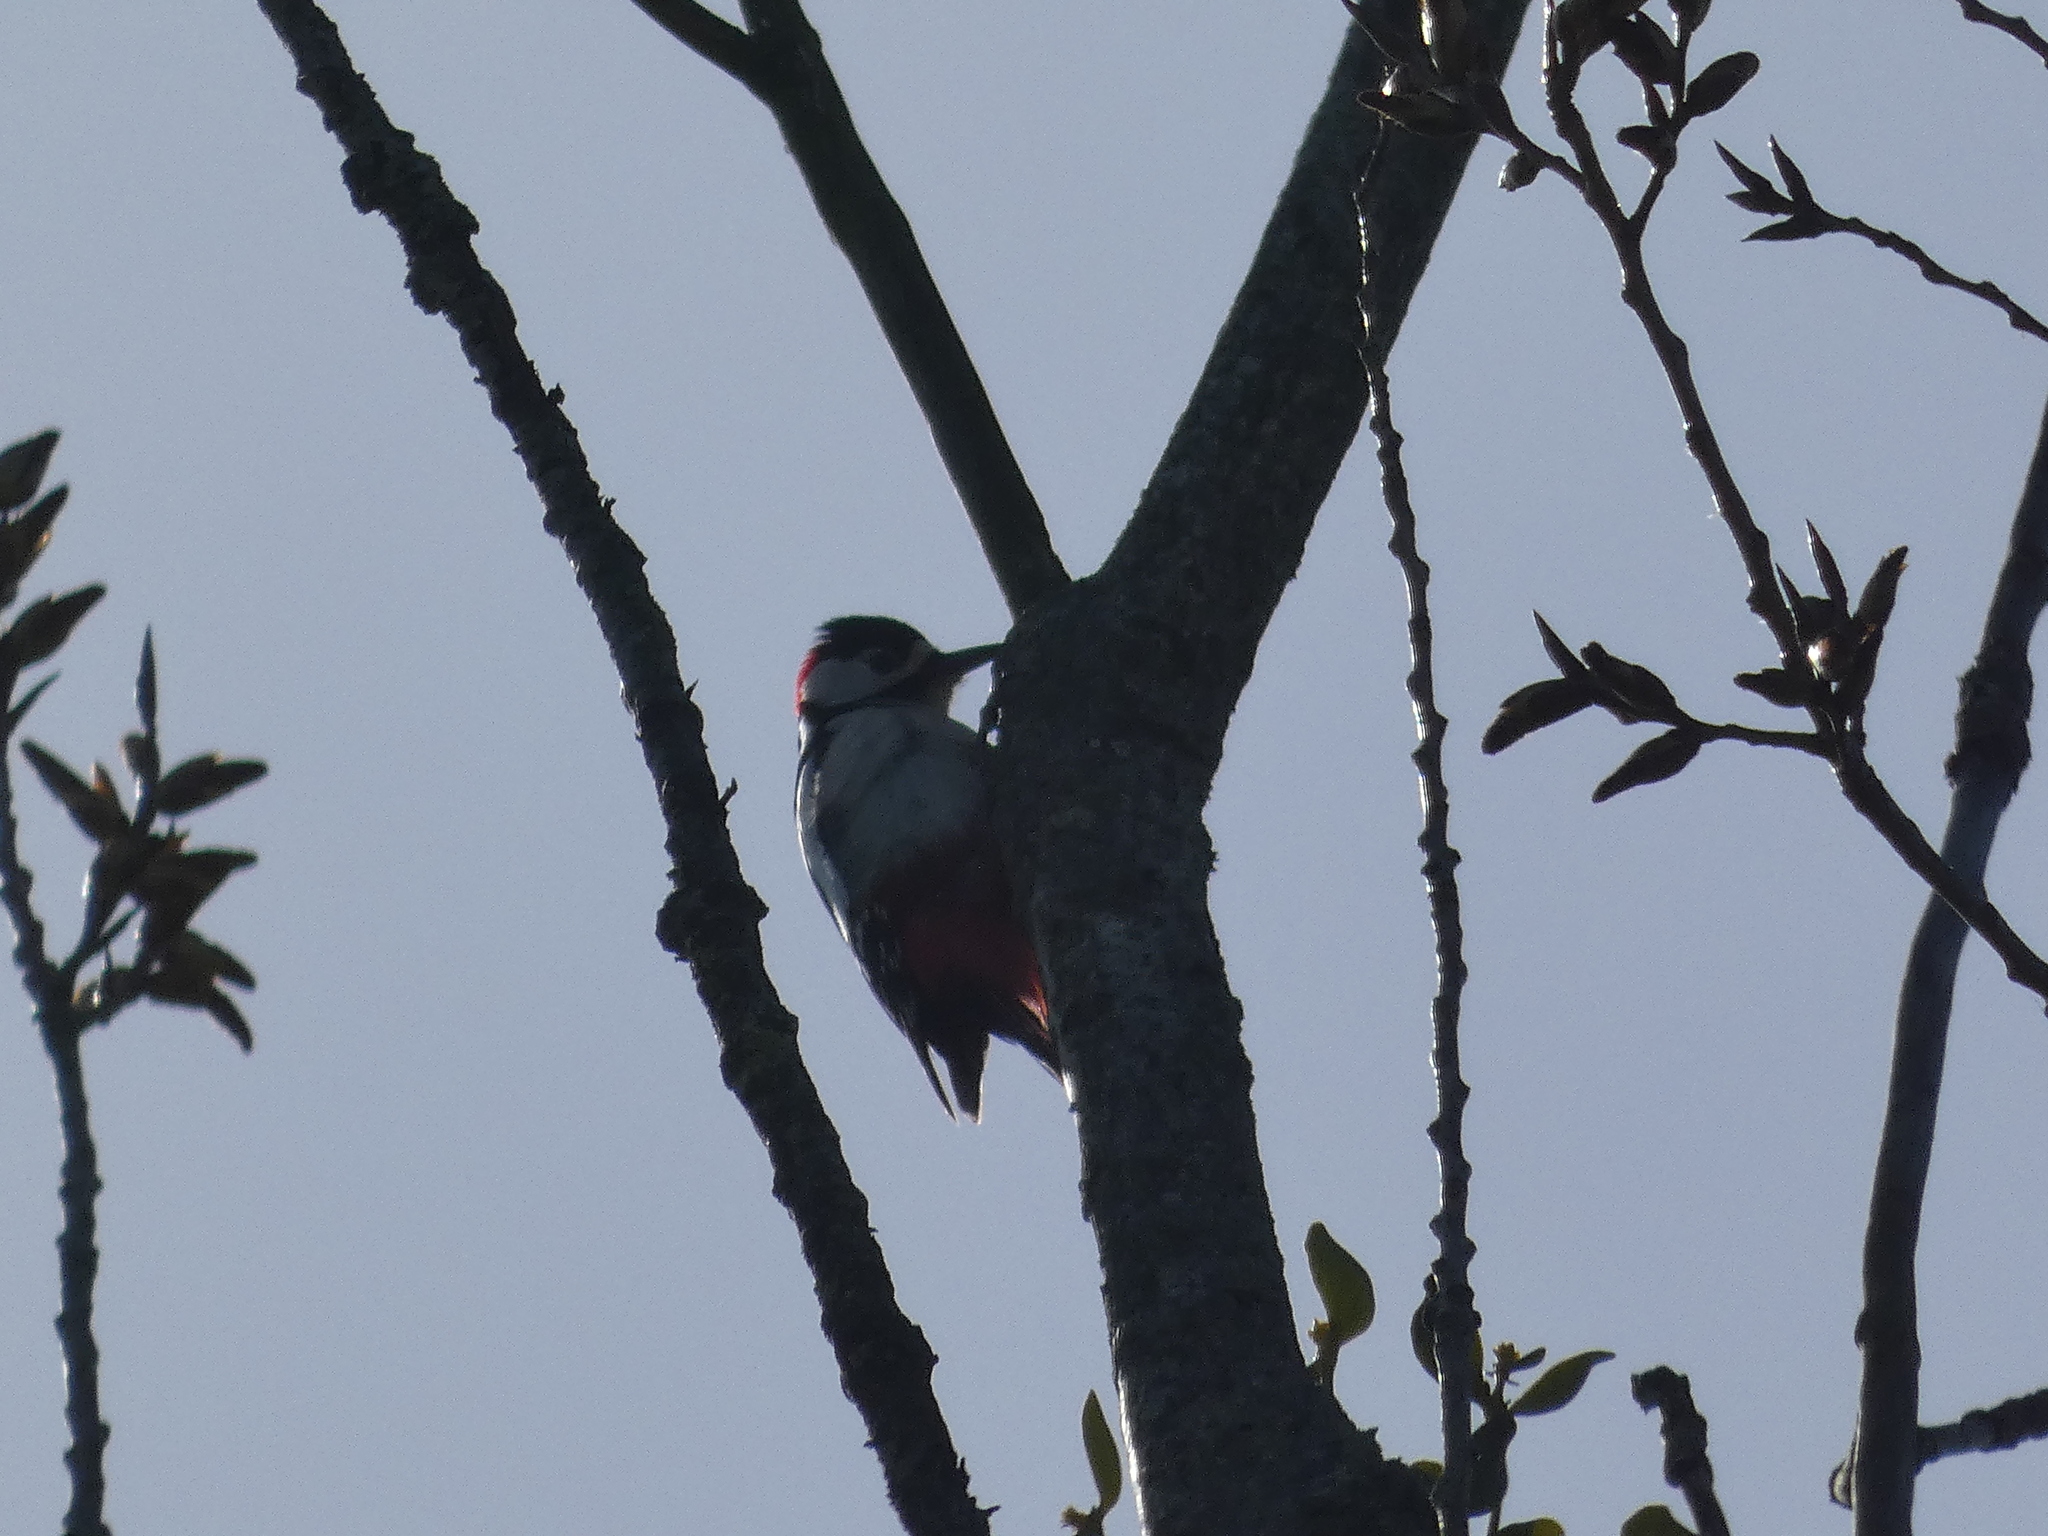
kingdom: Animalia
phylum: Chordata
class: Aves
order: Piciformes
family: Picidae
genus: Dendrocopos
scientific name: Dendrocopos major
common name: Great spotted woodpecker
